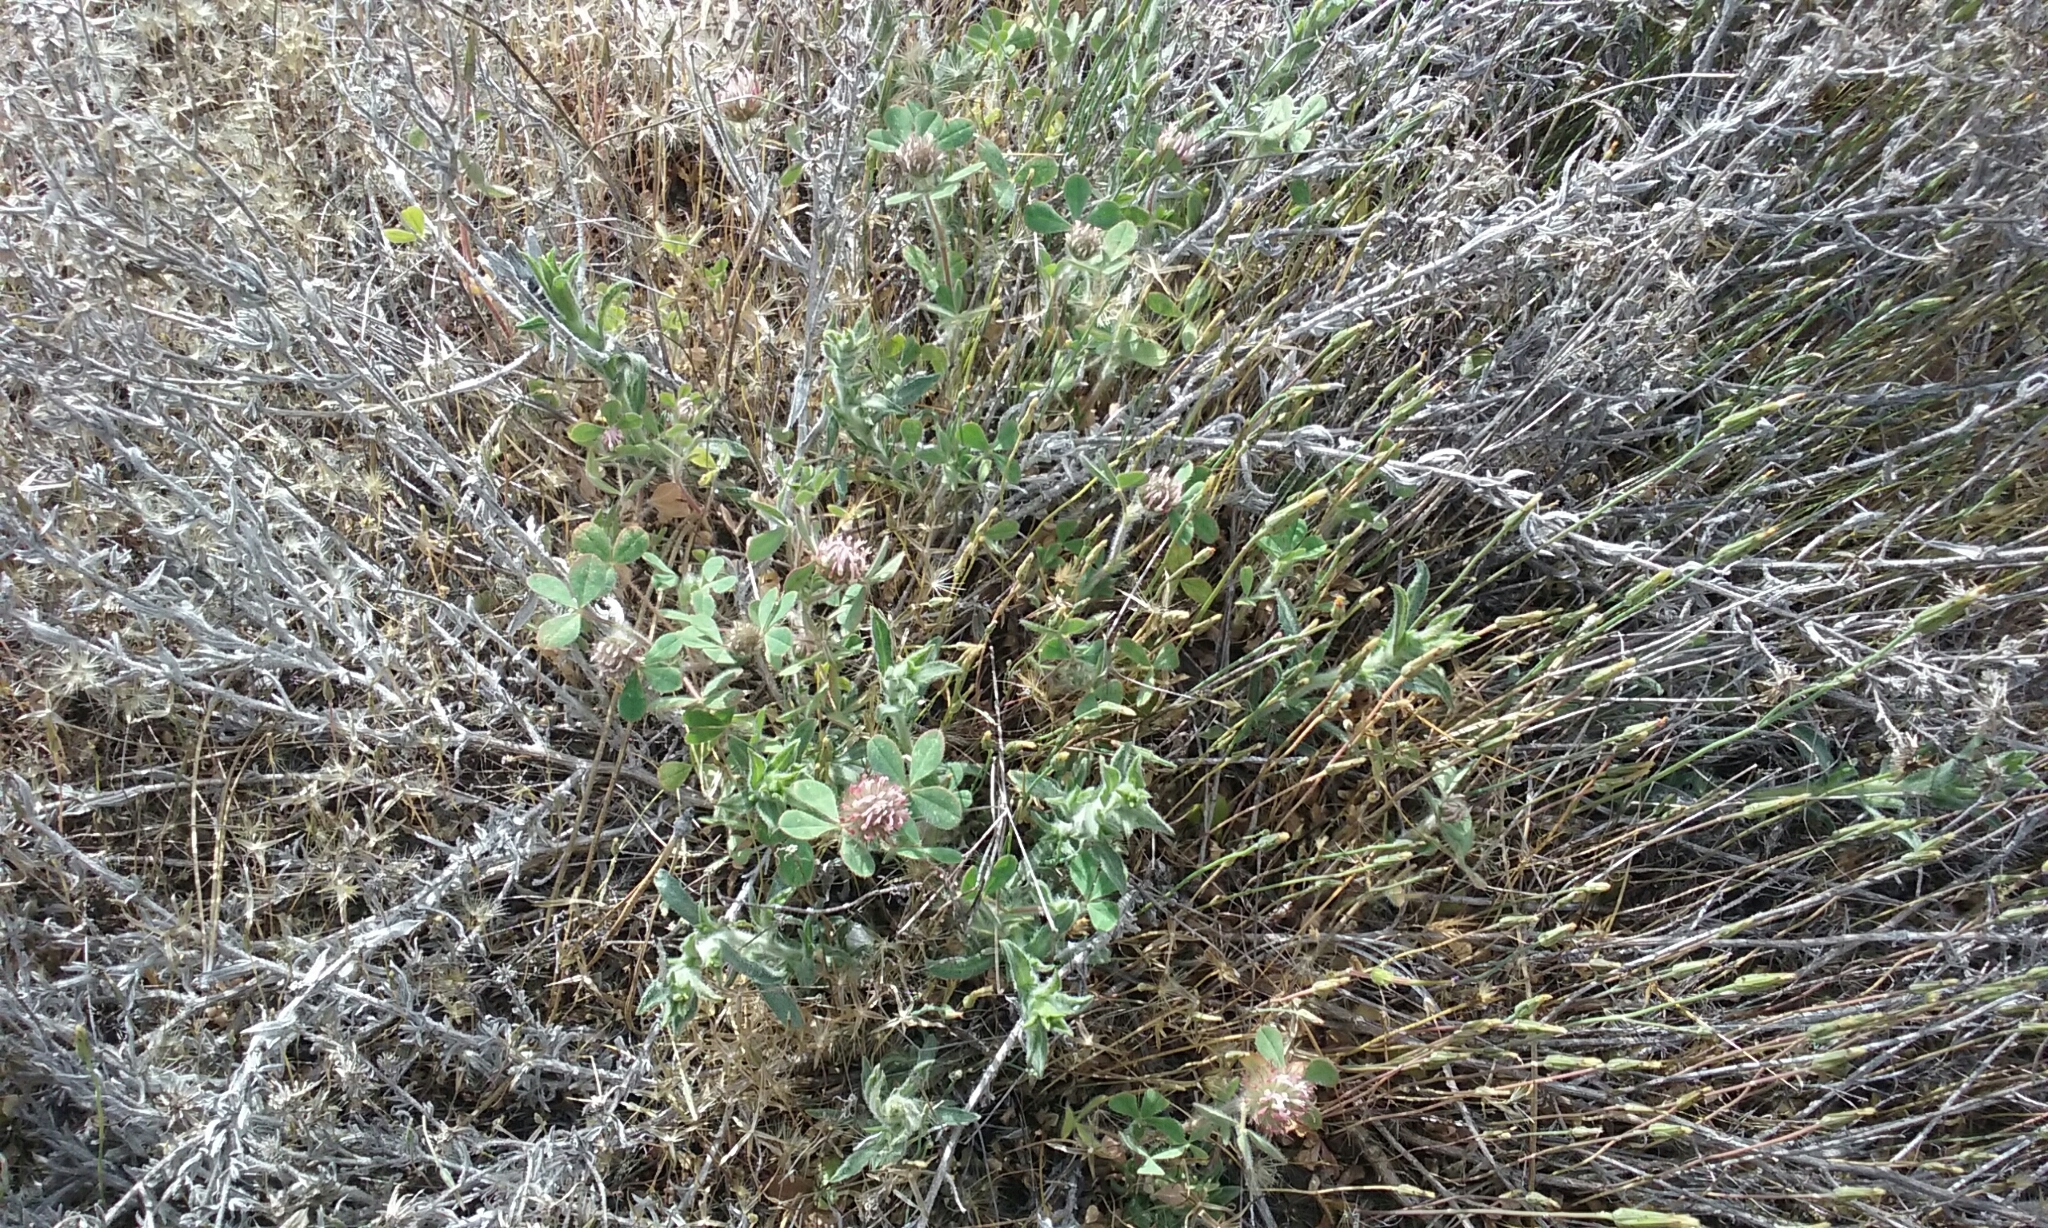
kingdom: Plantae
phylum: Tracheophyta
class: Magnoliopsida
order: Fabales
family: Fabaceae
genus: Trifolium
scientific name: Trifolium hirtum
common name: Rose clover
